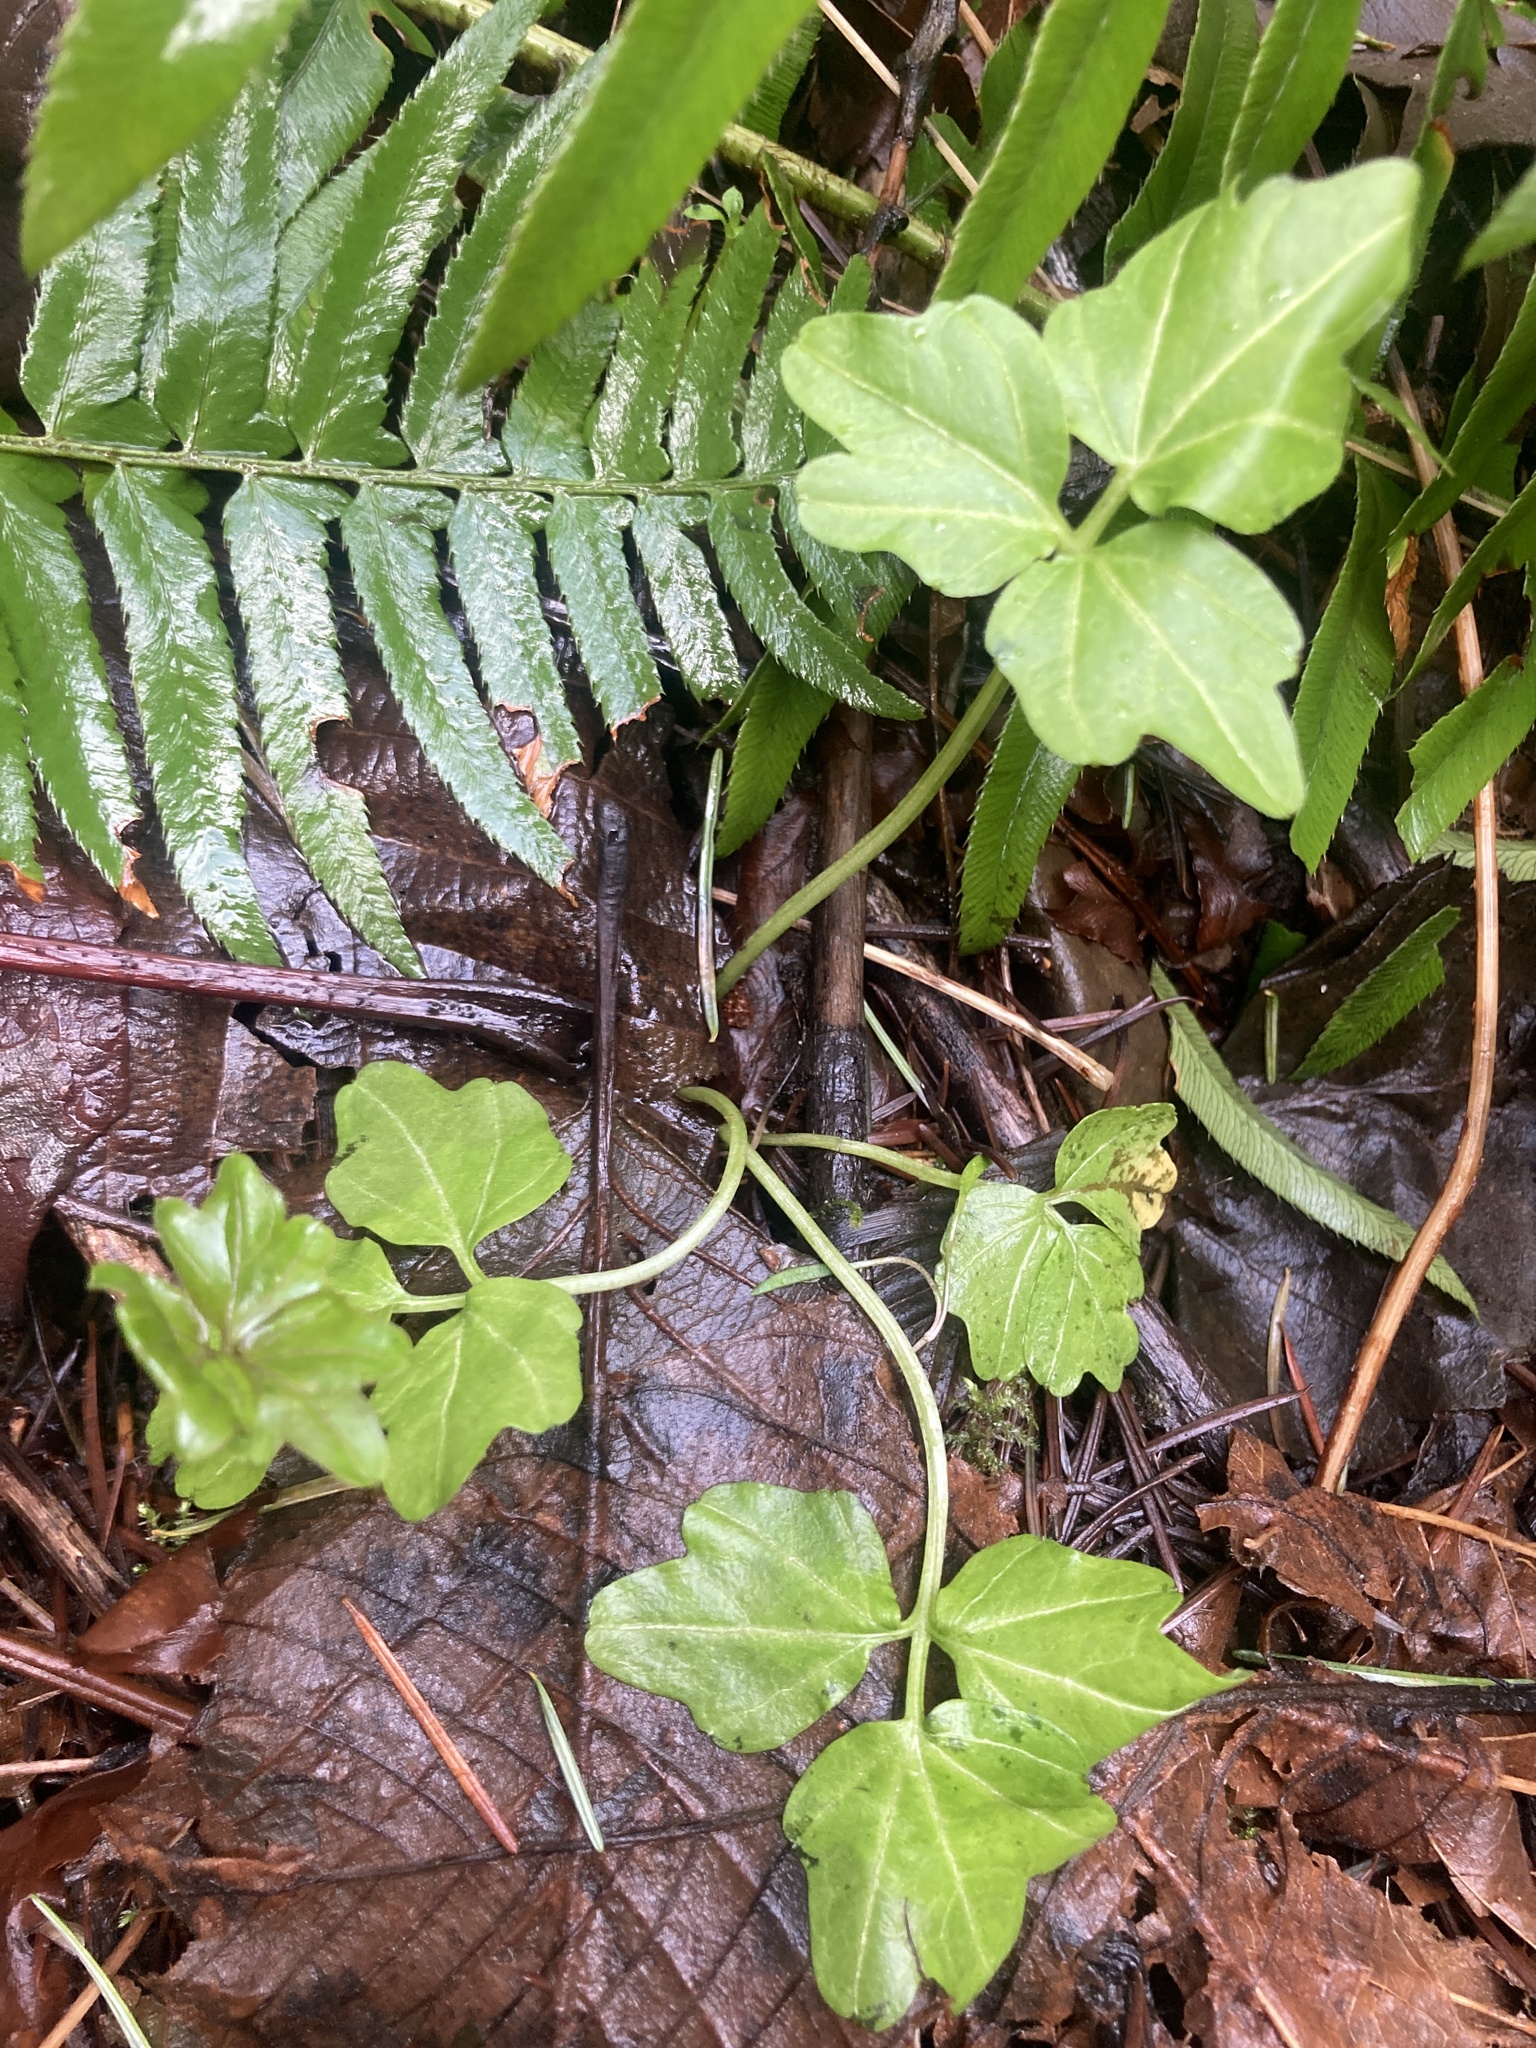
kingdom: Plantae
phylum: Tracheophyta
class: Magnoliopsida
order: Brassicales
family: Brassicaceae
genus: Cardamine
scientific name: Cardamine angulata
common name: Angled bittercress
